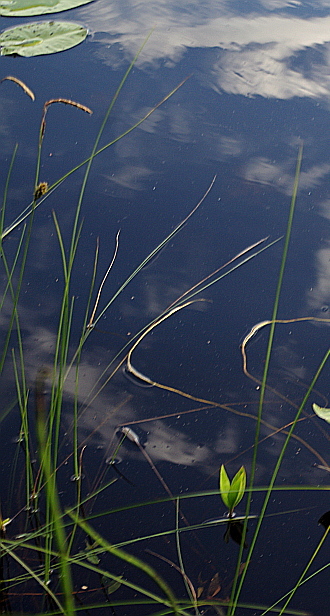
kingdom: Plantae
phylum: Tracheophyta
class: Liliopsida
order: Poales
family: Cyperaceae
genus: Carex
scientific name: Carex lasiocarpa
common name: Slender sedge
